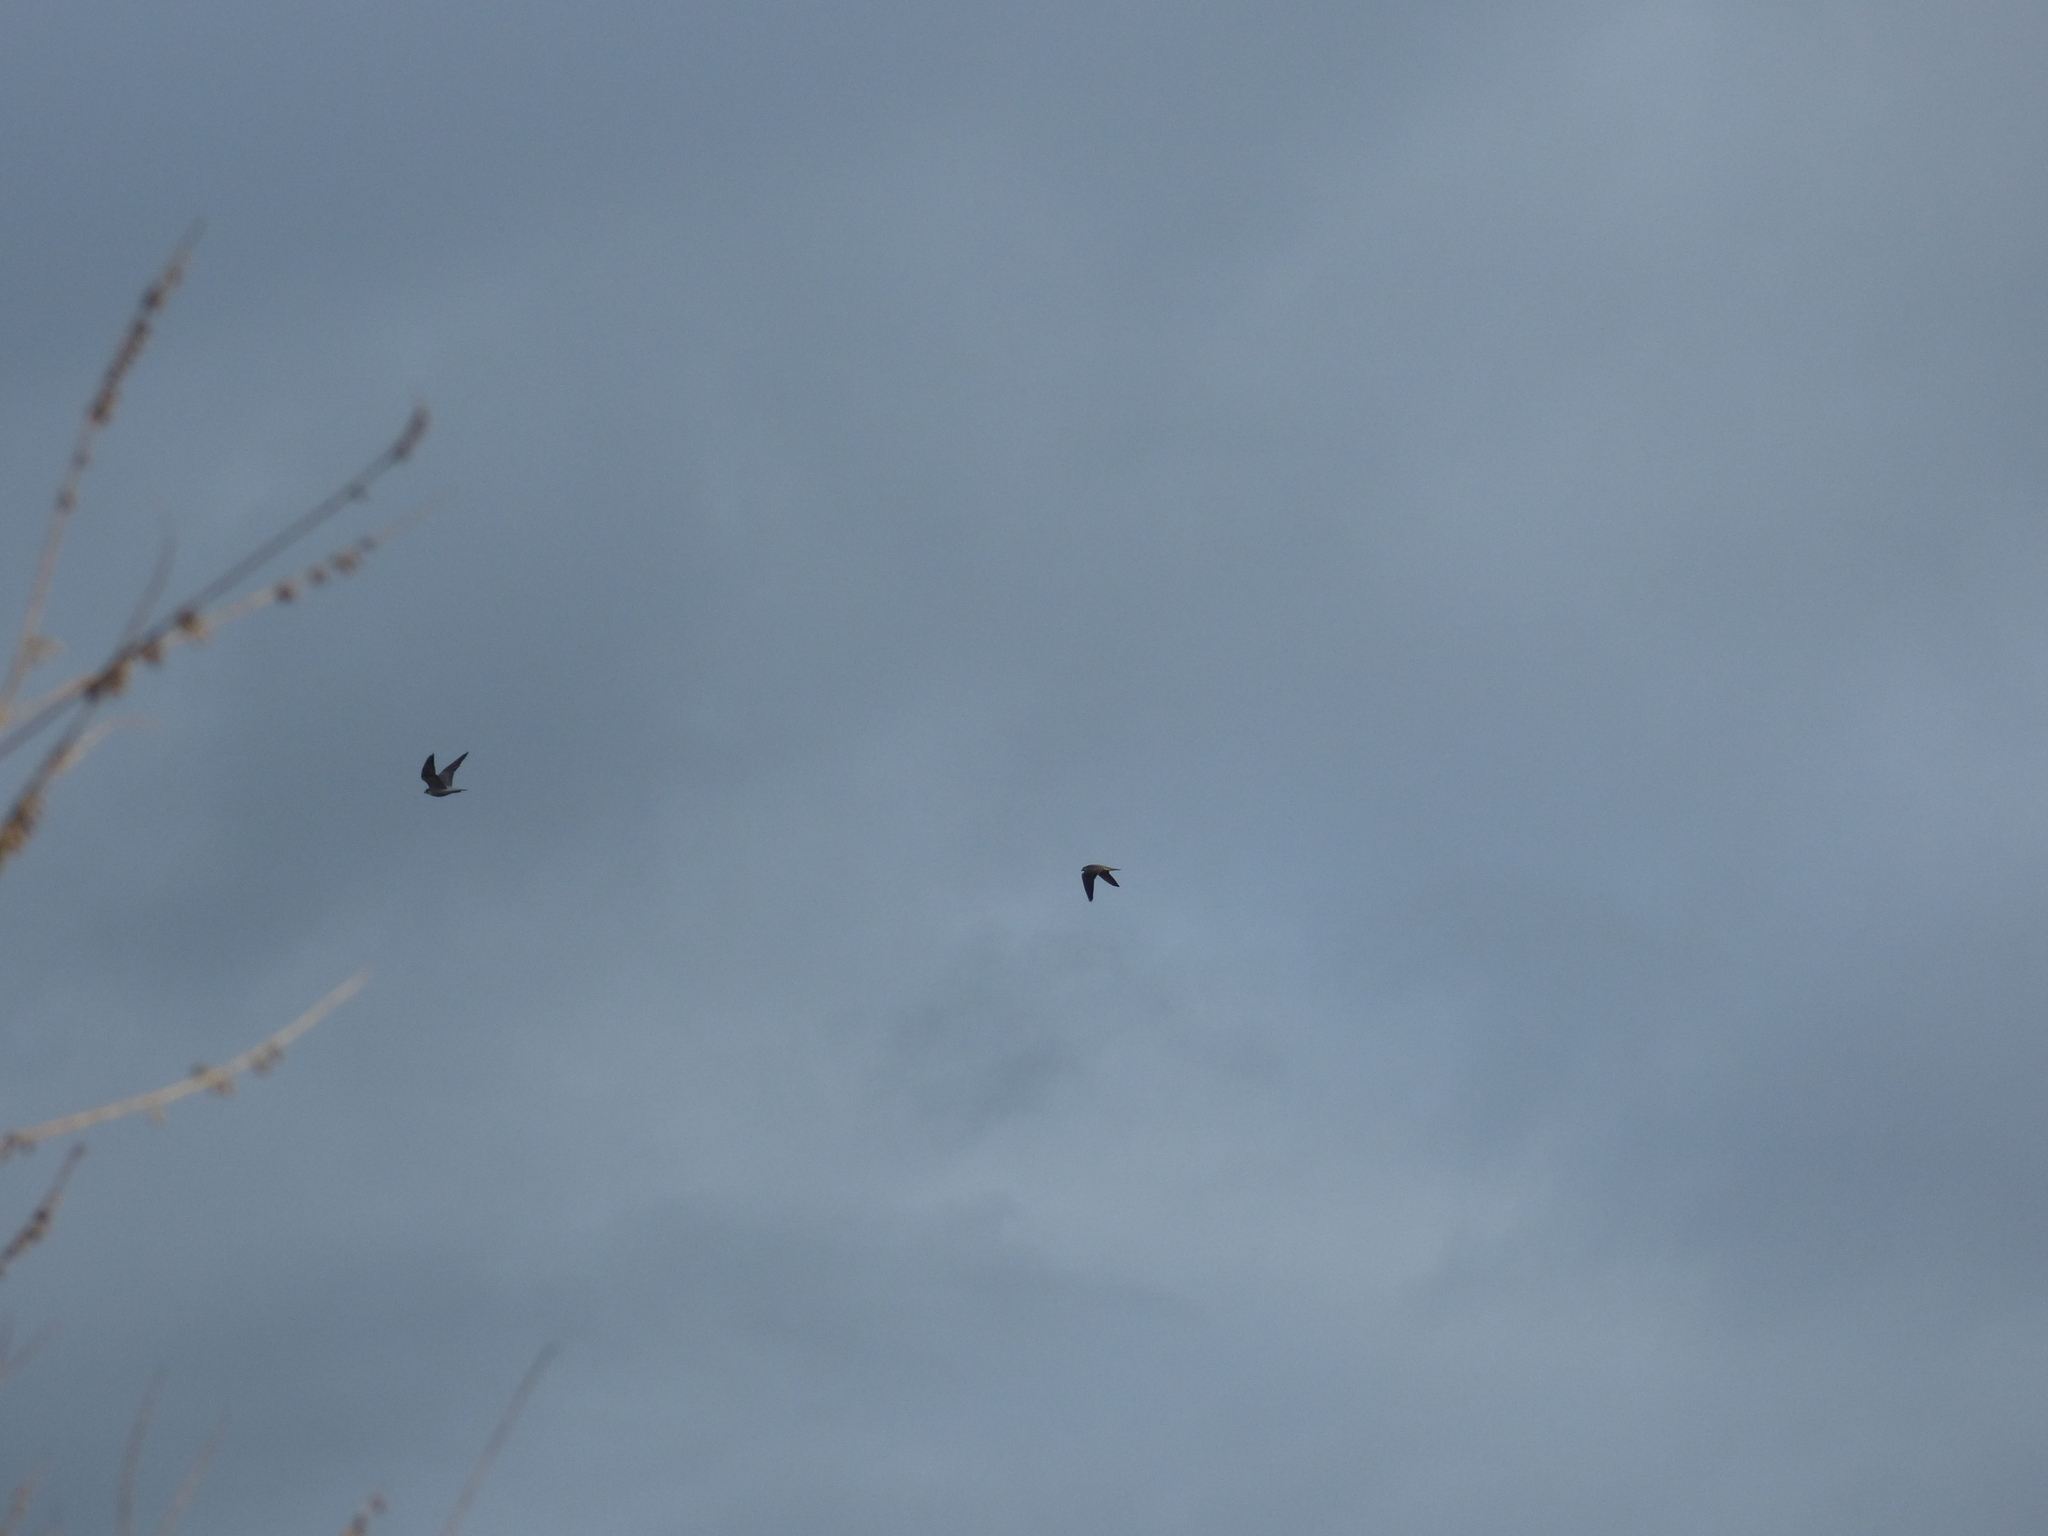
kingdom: Animalia
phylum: Chordata
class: Aves
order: Falconiformes
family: Falconidae
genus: Falco
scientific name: Falco peregrinus
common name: Peregrine falcon
